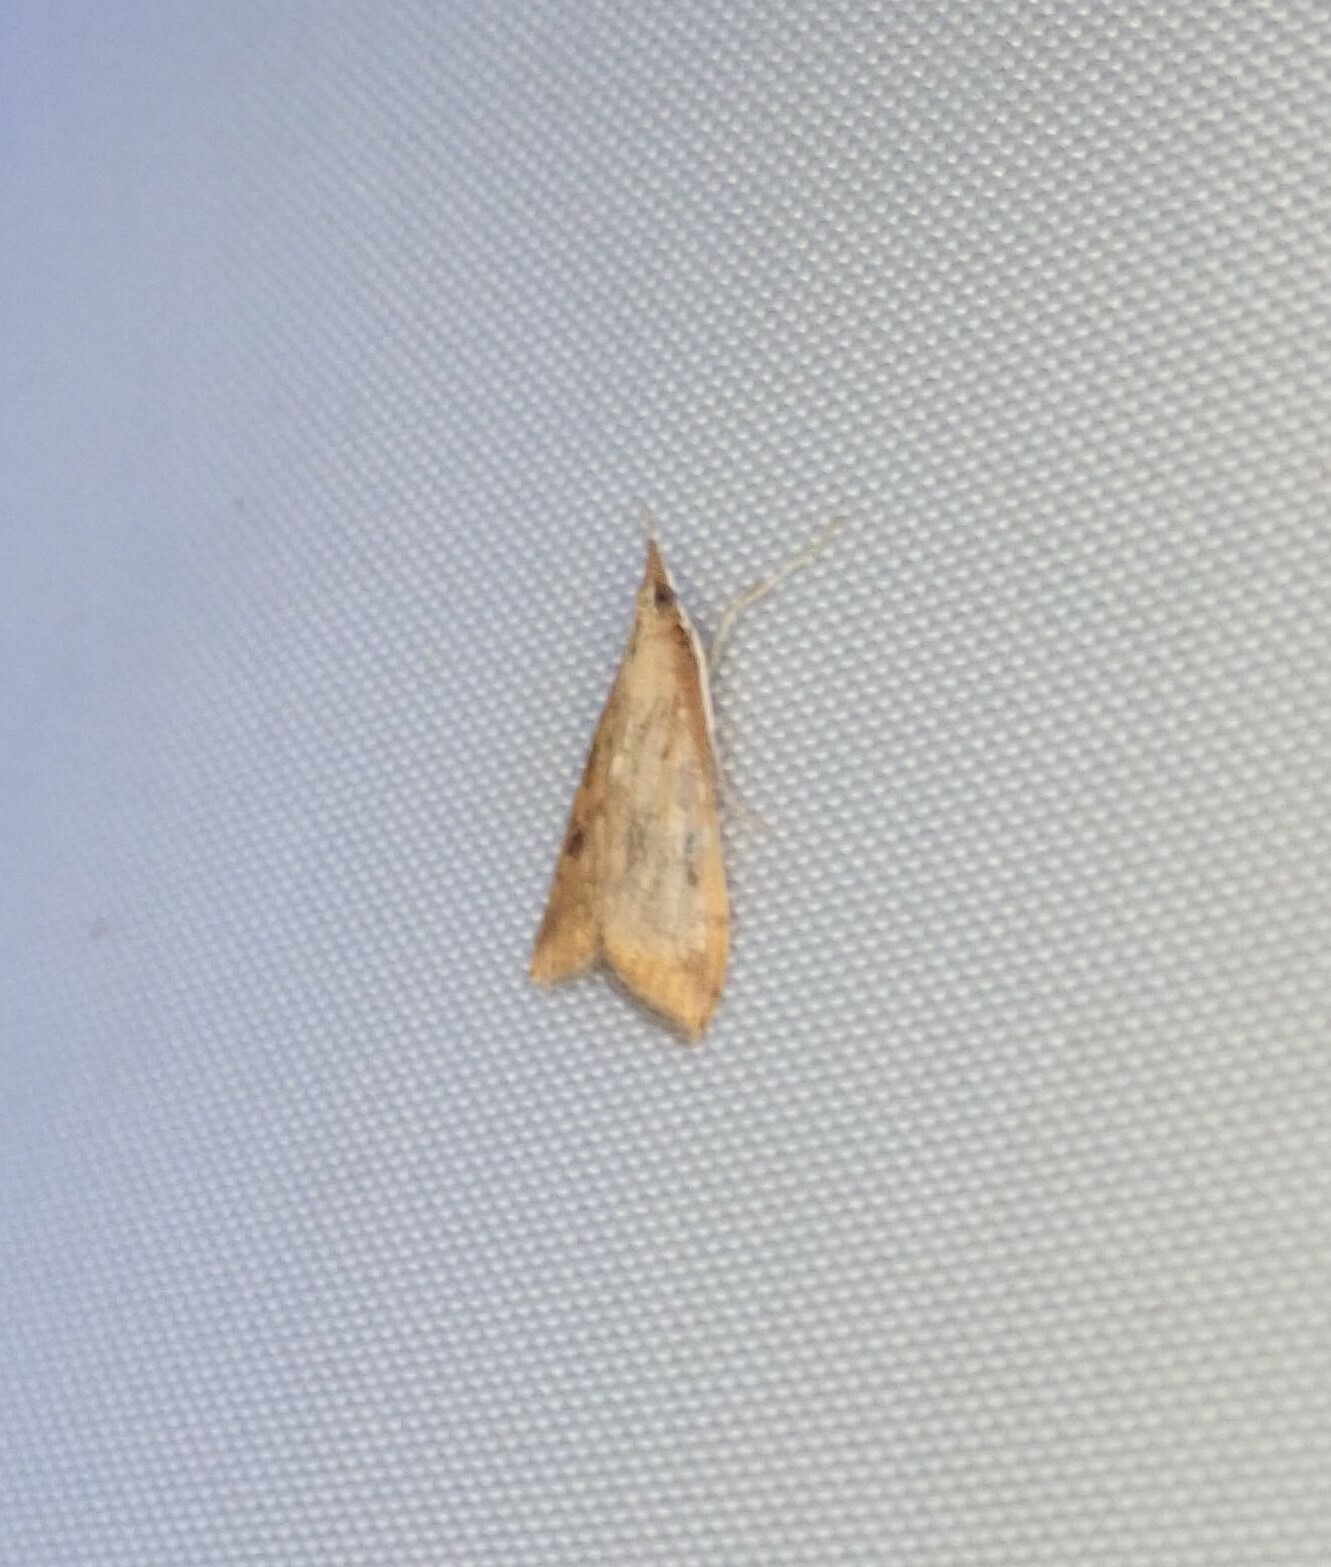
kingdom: Animalia
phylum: Arthropoda
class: Insecta
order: Lepidoptera
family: Crambidae
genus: Udea
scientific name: Udea ferrugalis
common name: Rusty dot
